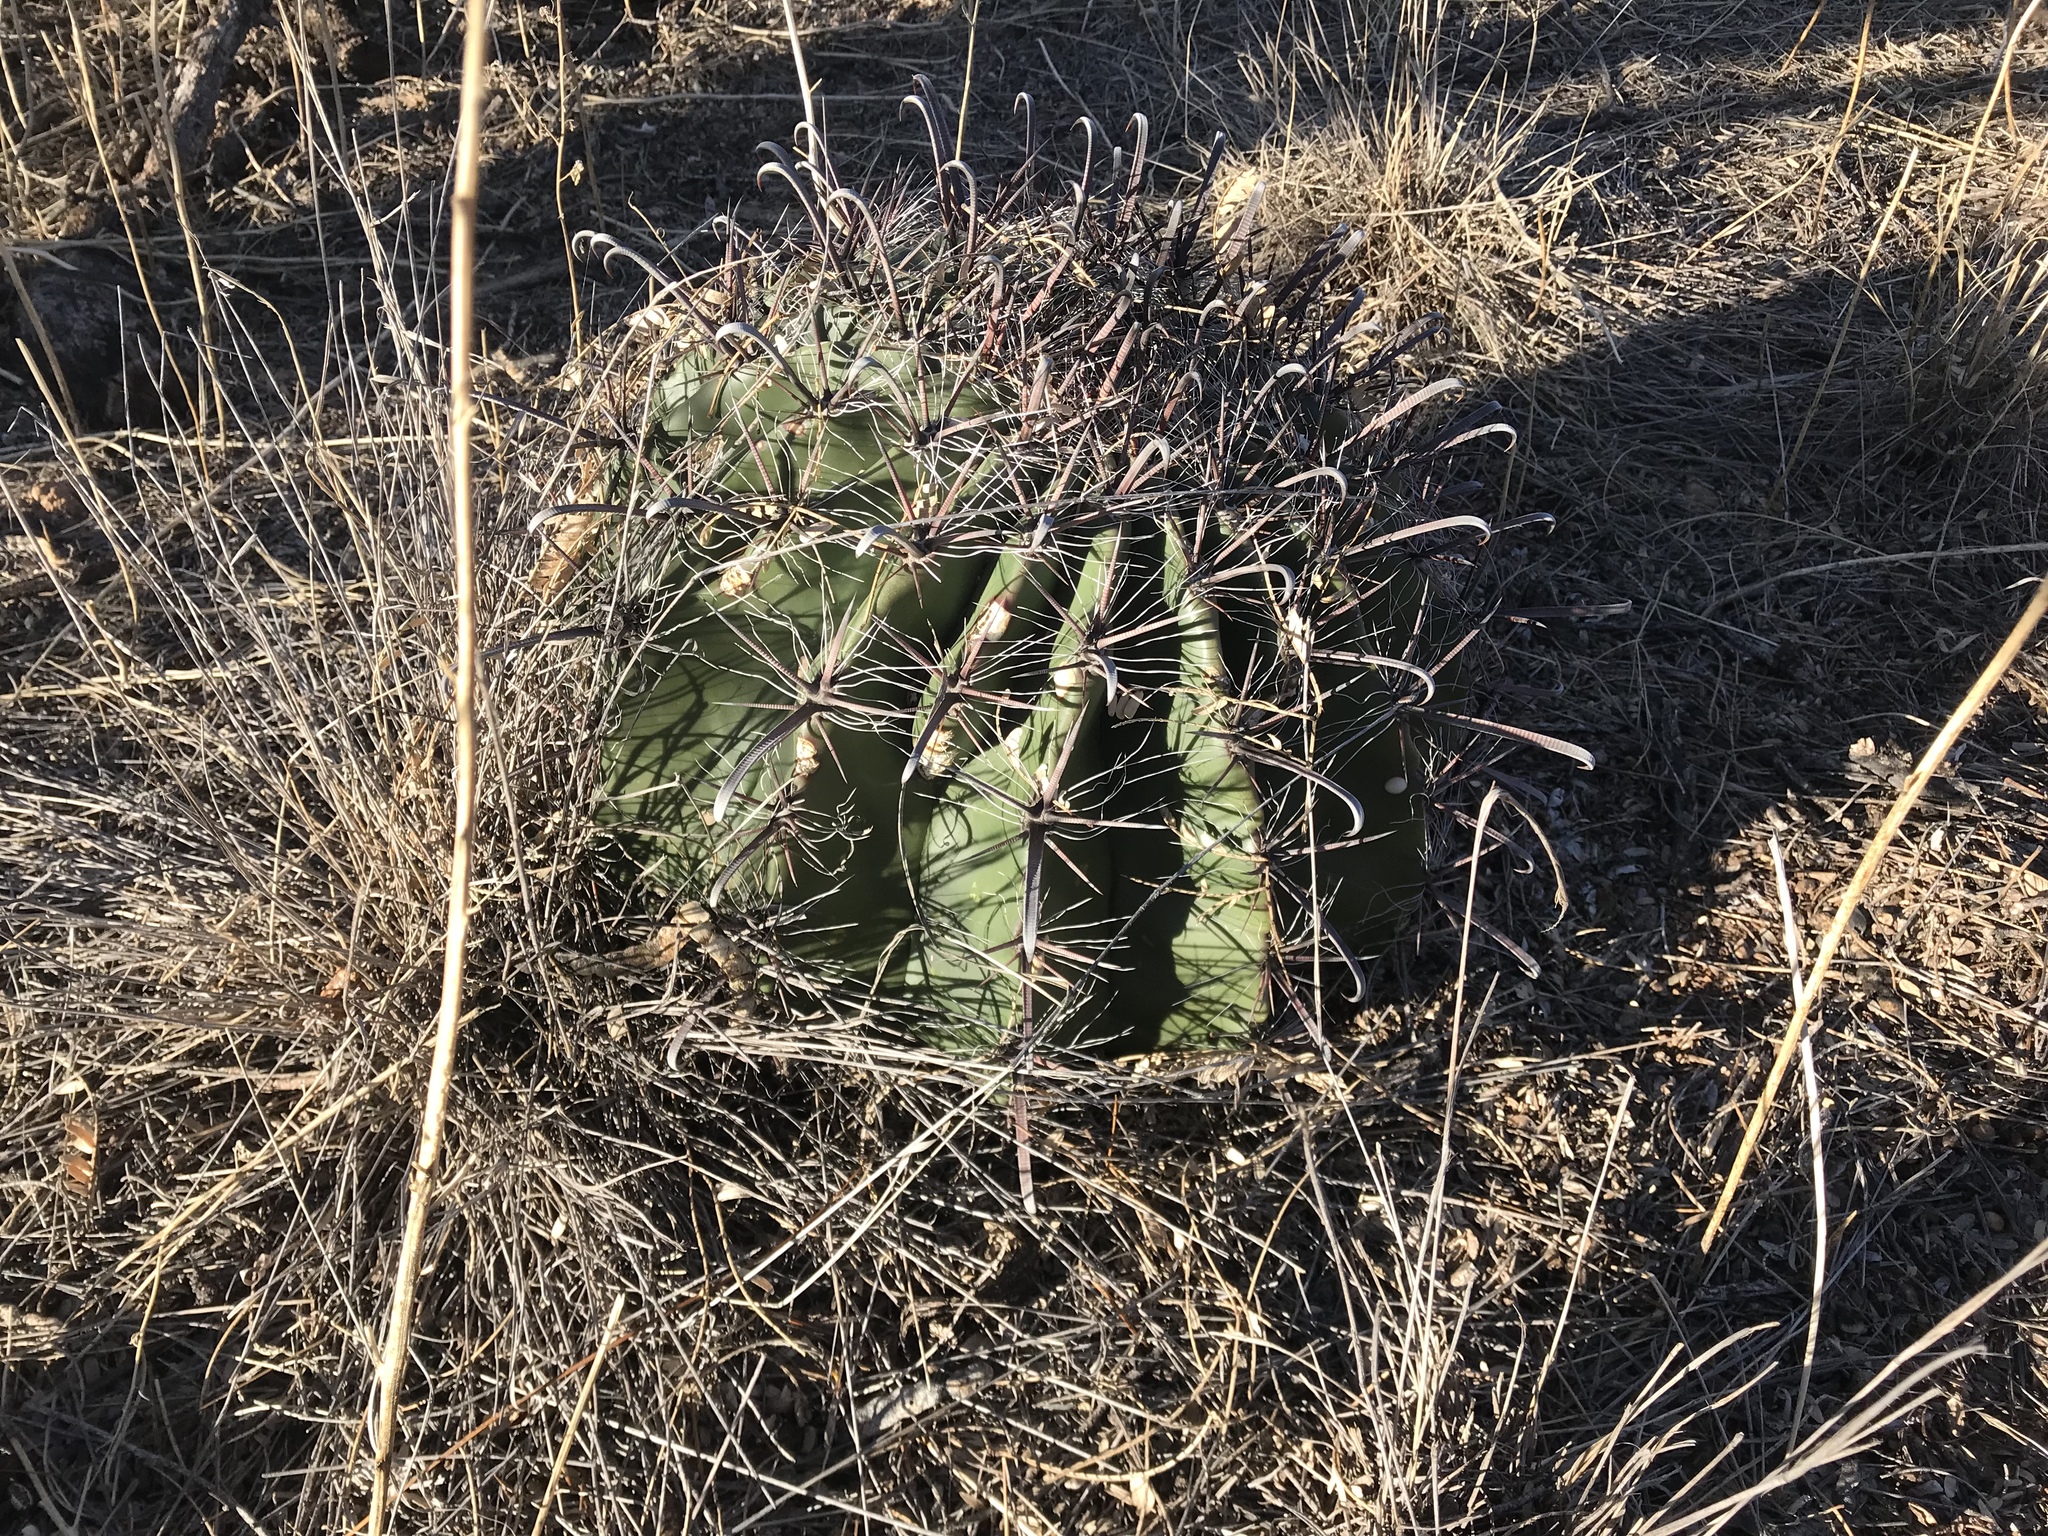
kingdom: Plantae
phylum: Tracheophyta
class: Magnoliopsida
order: Caryophyllales
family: Cactaceae
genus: Ferocactus
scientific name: Ferocactus wislizeni
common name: Candy barrel cactus
